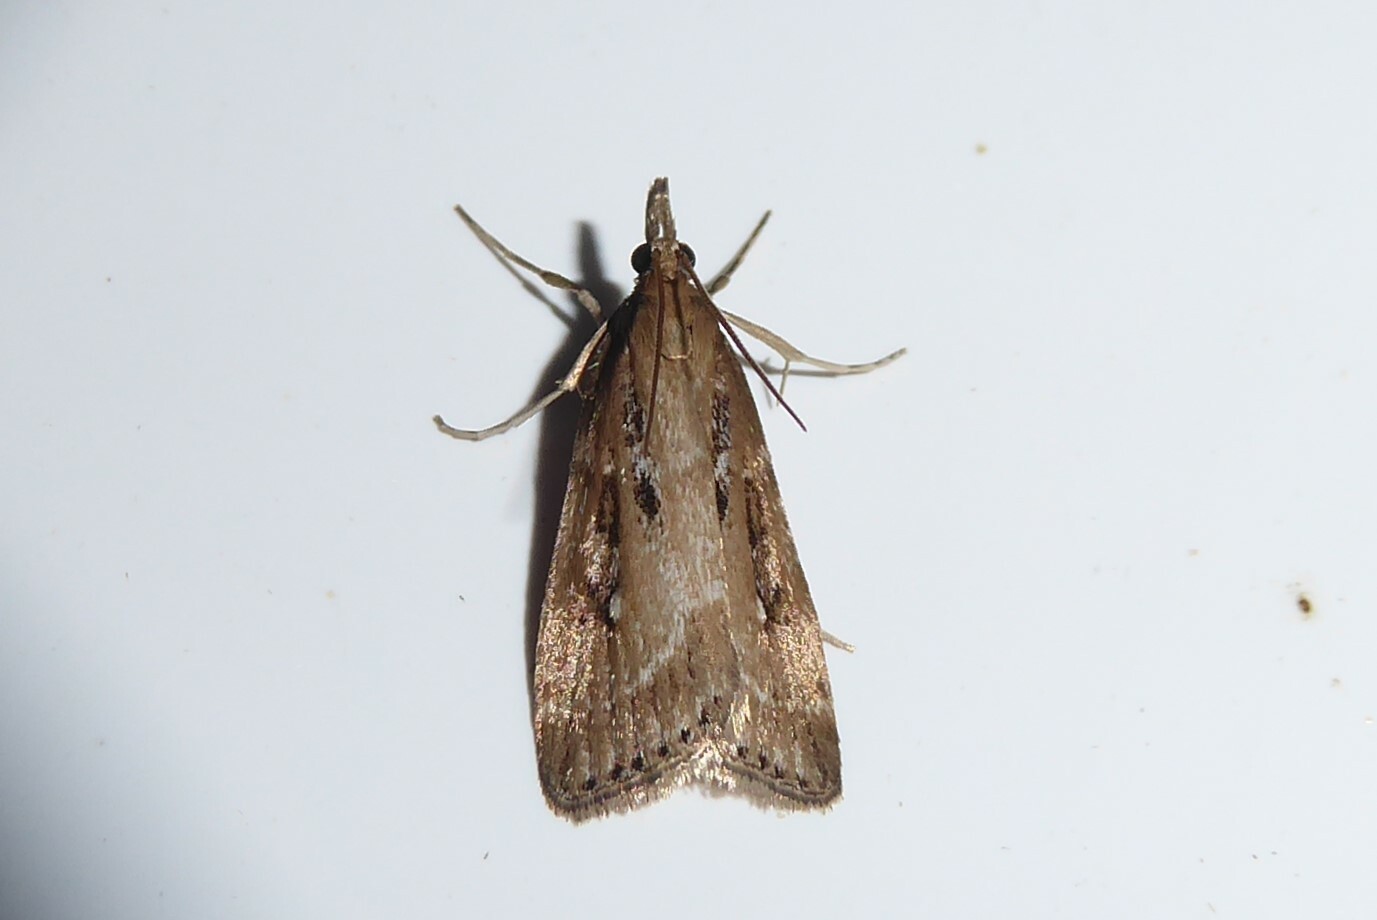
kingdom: Animalia
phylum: Arthropoda
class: Insecta
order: Lepidoptera
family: Crambidae
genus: Eudonia
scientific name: Eudonia octophora
